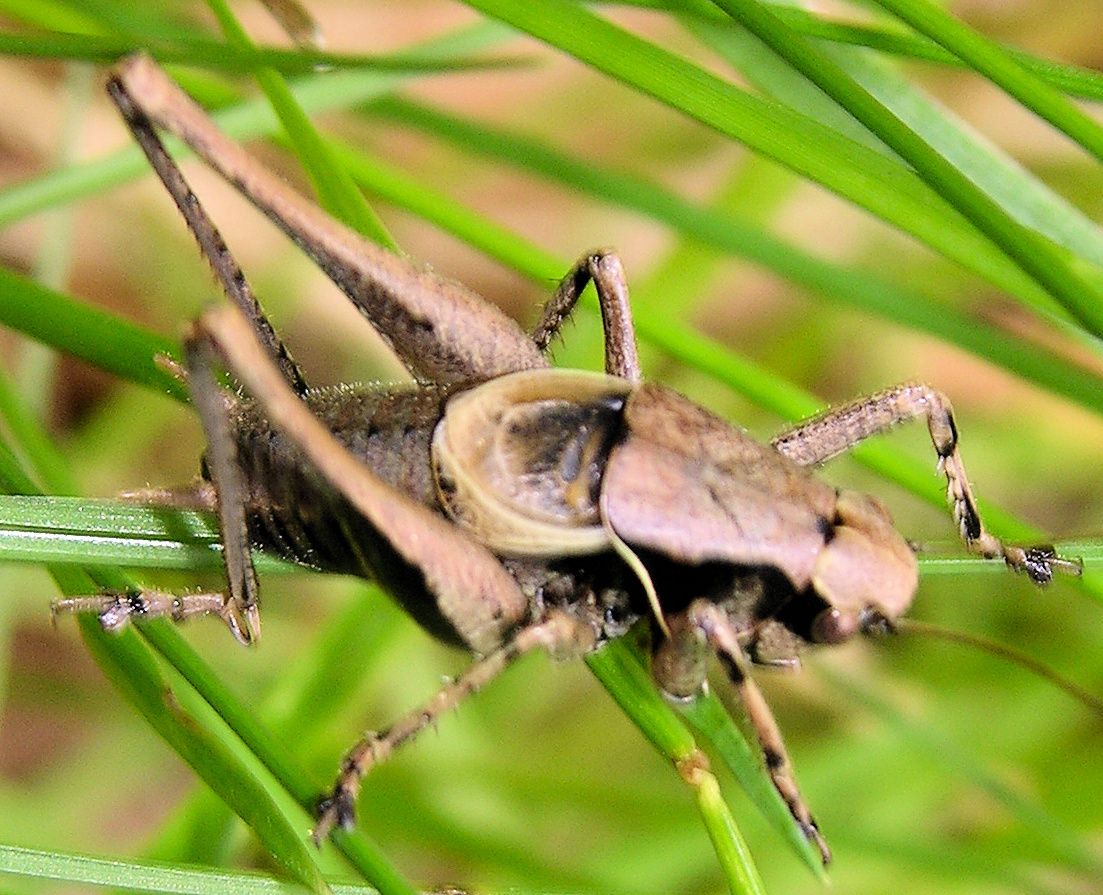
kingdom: Animalia
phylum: Arthropoda
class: Insecta
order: Orthoptera
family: Tettigoniidae
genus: Pholidoptera
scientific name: Pholidoptera griseoaptera
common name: Dark bush-cricket
